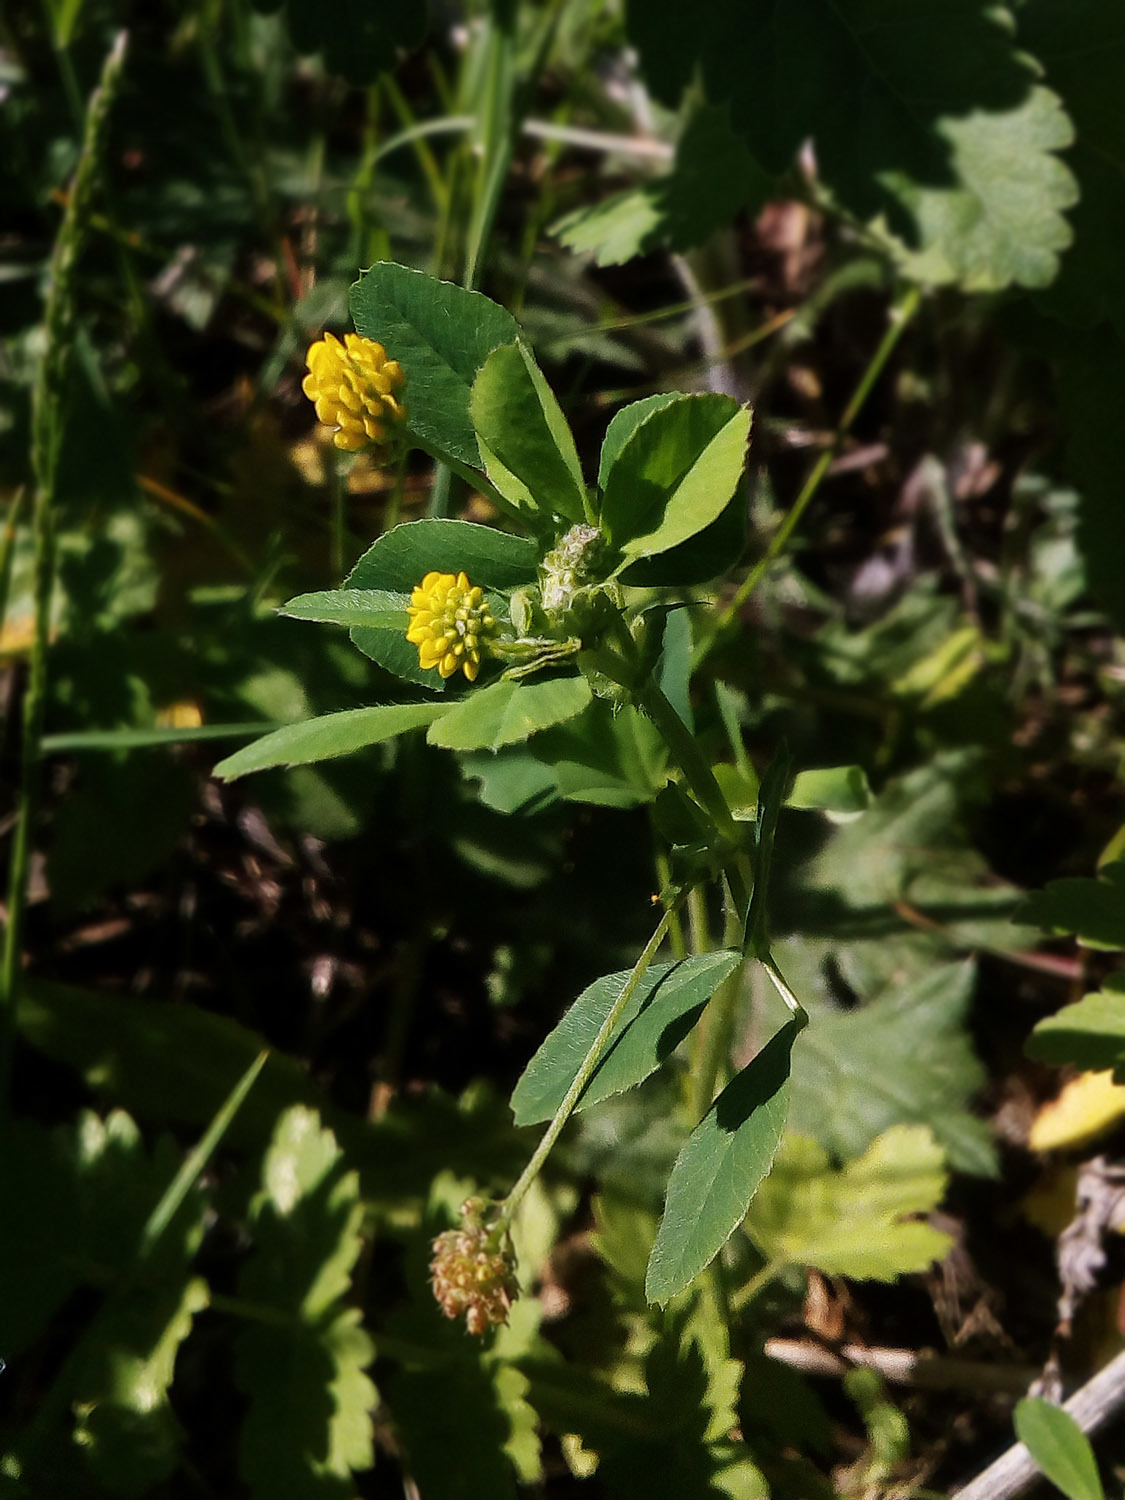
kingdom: Plantae
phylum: Tracheophyta
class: Magnoliopsida
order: Fabales
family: Fabaceae
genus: Medicago
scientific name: Medicago lupulina
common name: Black medick
